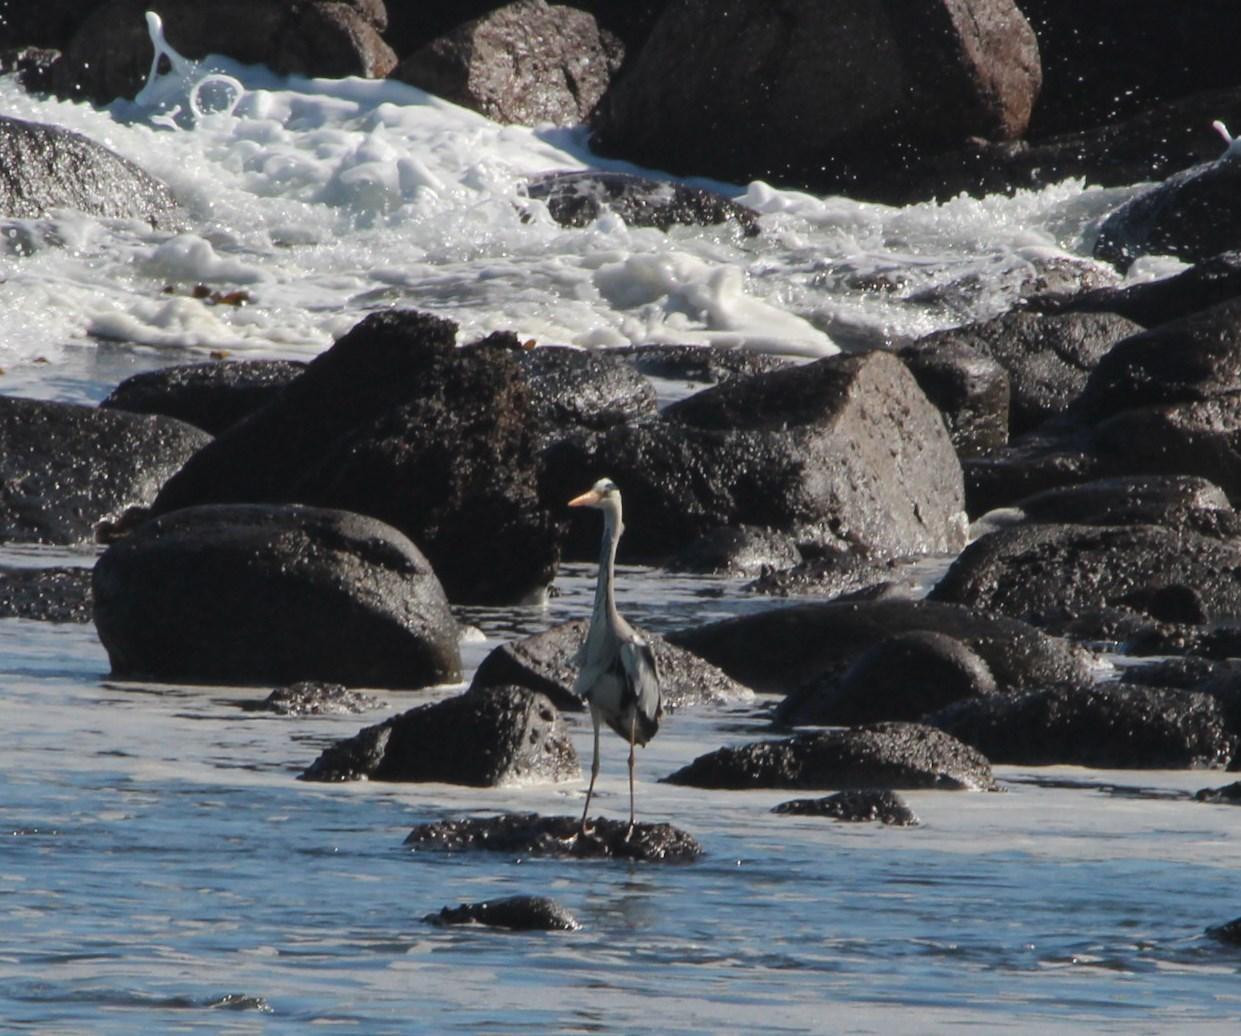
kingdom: Animalia
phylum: Chordata
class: Aves
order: Pelecaniformes
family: Ardeidae
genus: Ardea
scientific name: Ardea cinerea
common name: Grey heron
